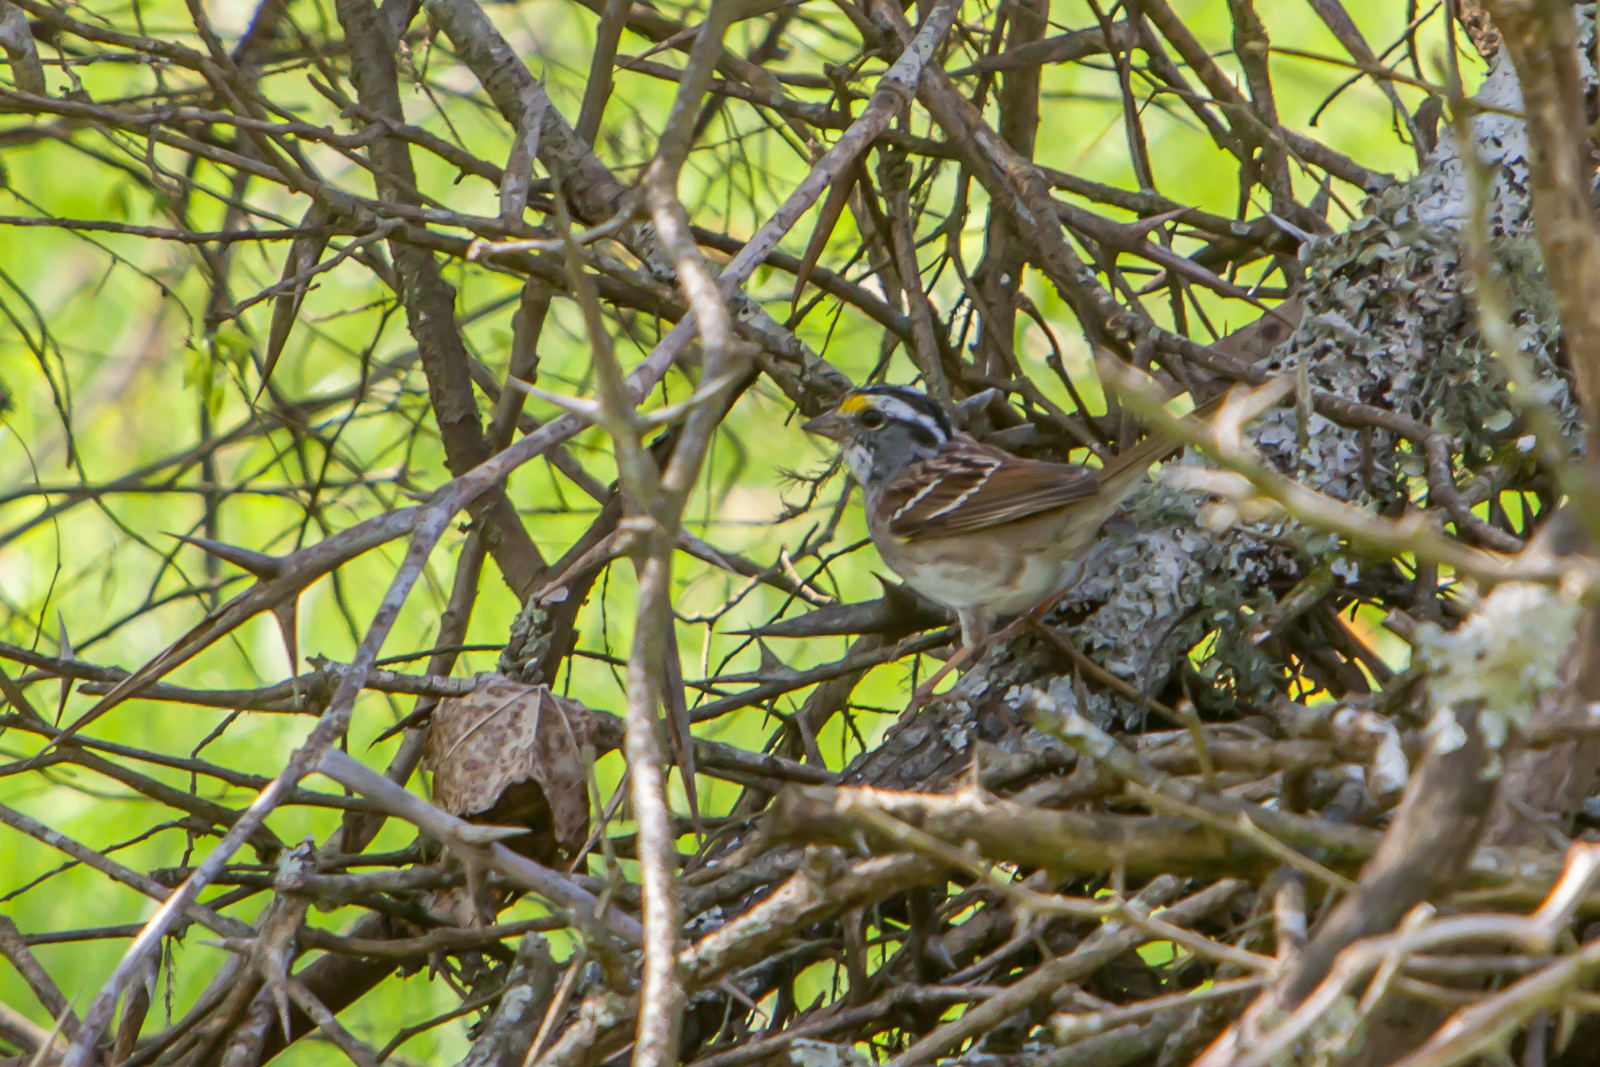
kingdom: Animalia
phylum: Chordata
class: Aves
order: Passeriformes
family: Passerellidae
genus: Zonotrichia
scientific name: Zonotrichia albicollis
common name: White-throated sparrow
